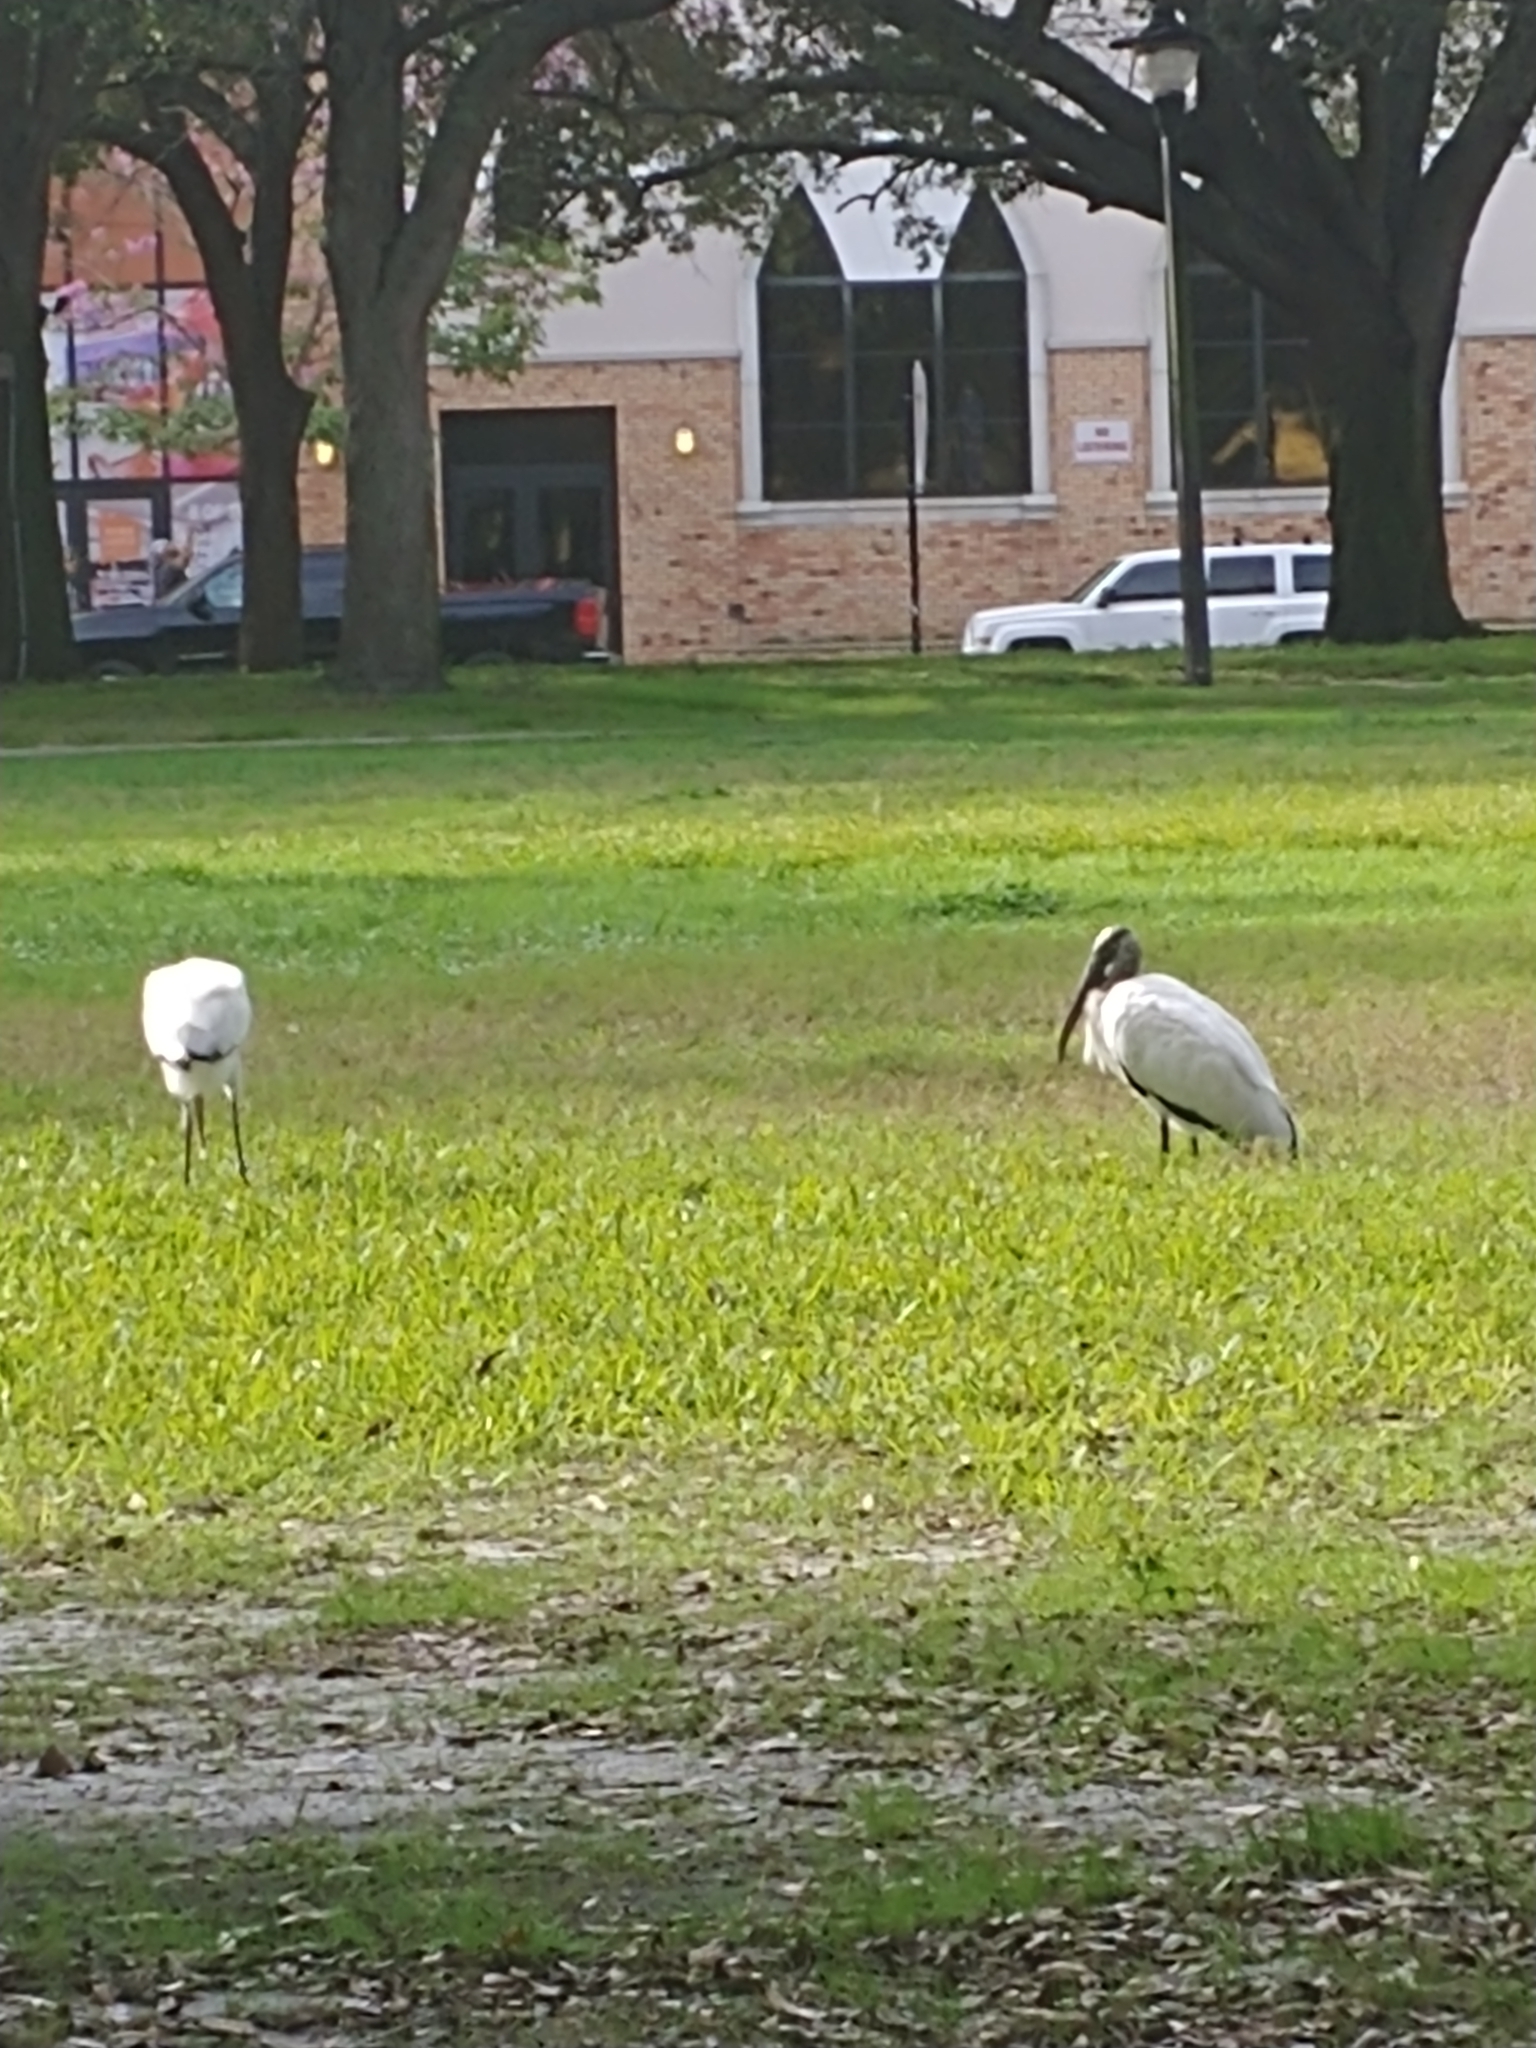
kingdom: Animalia
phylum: Chordata
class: Aves
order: Ciconiiformes
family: Ciconiidae
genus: Mycteria
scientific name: Mycteria americana
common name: Wood stork
